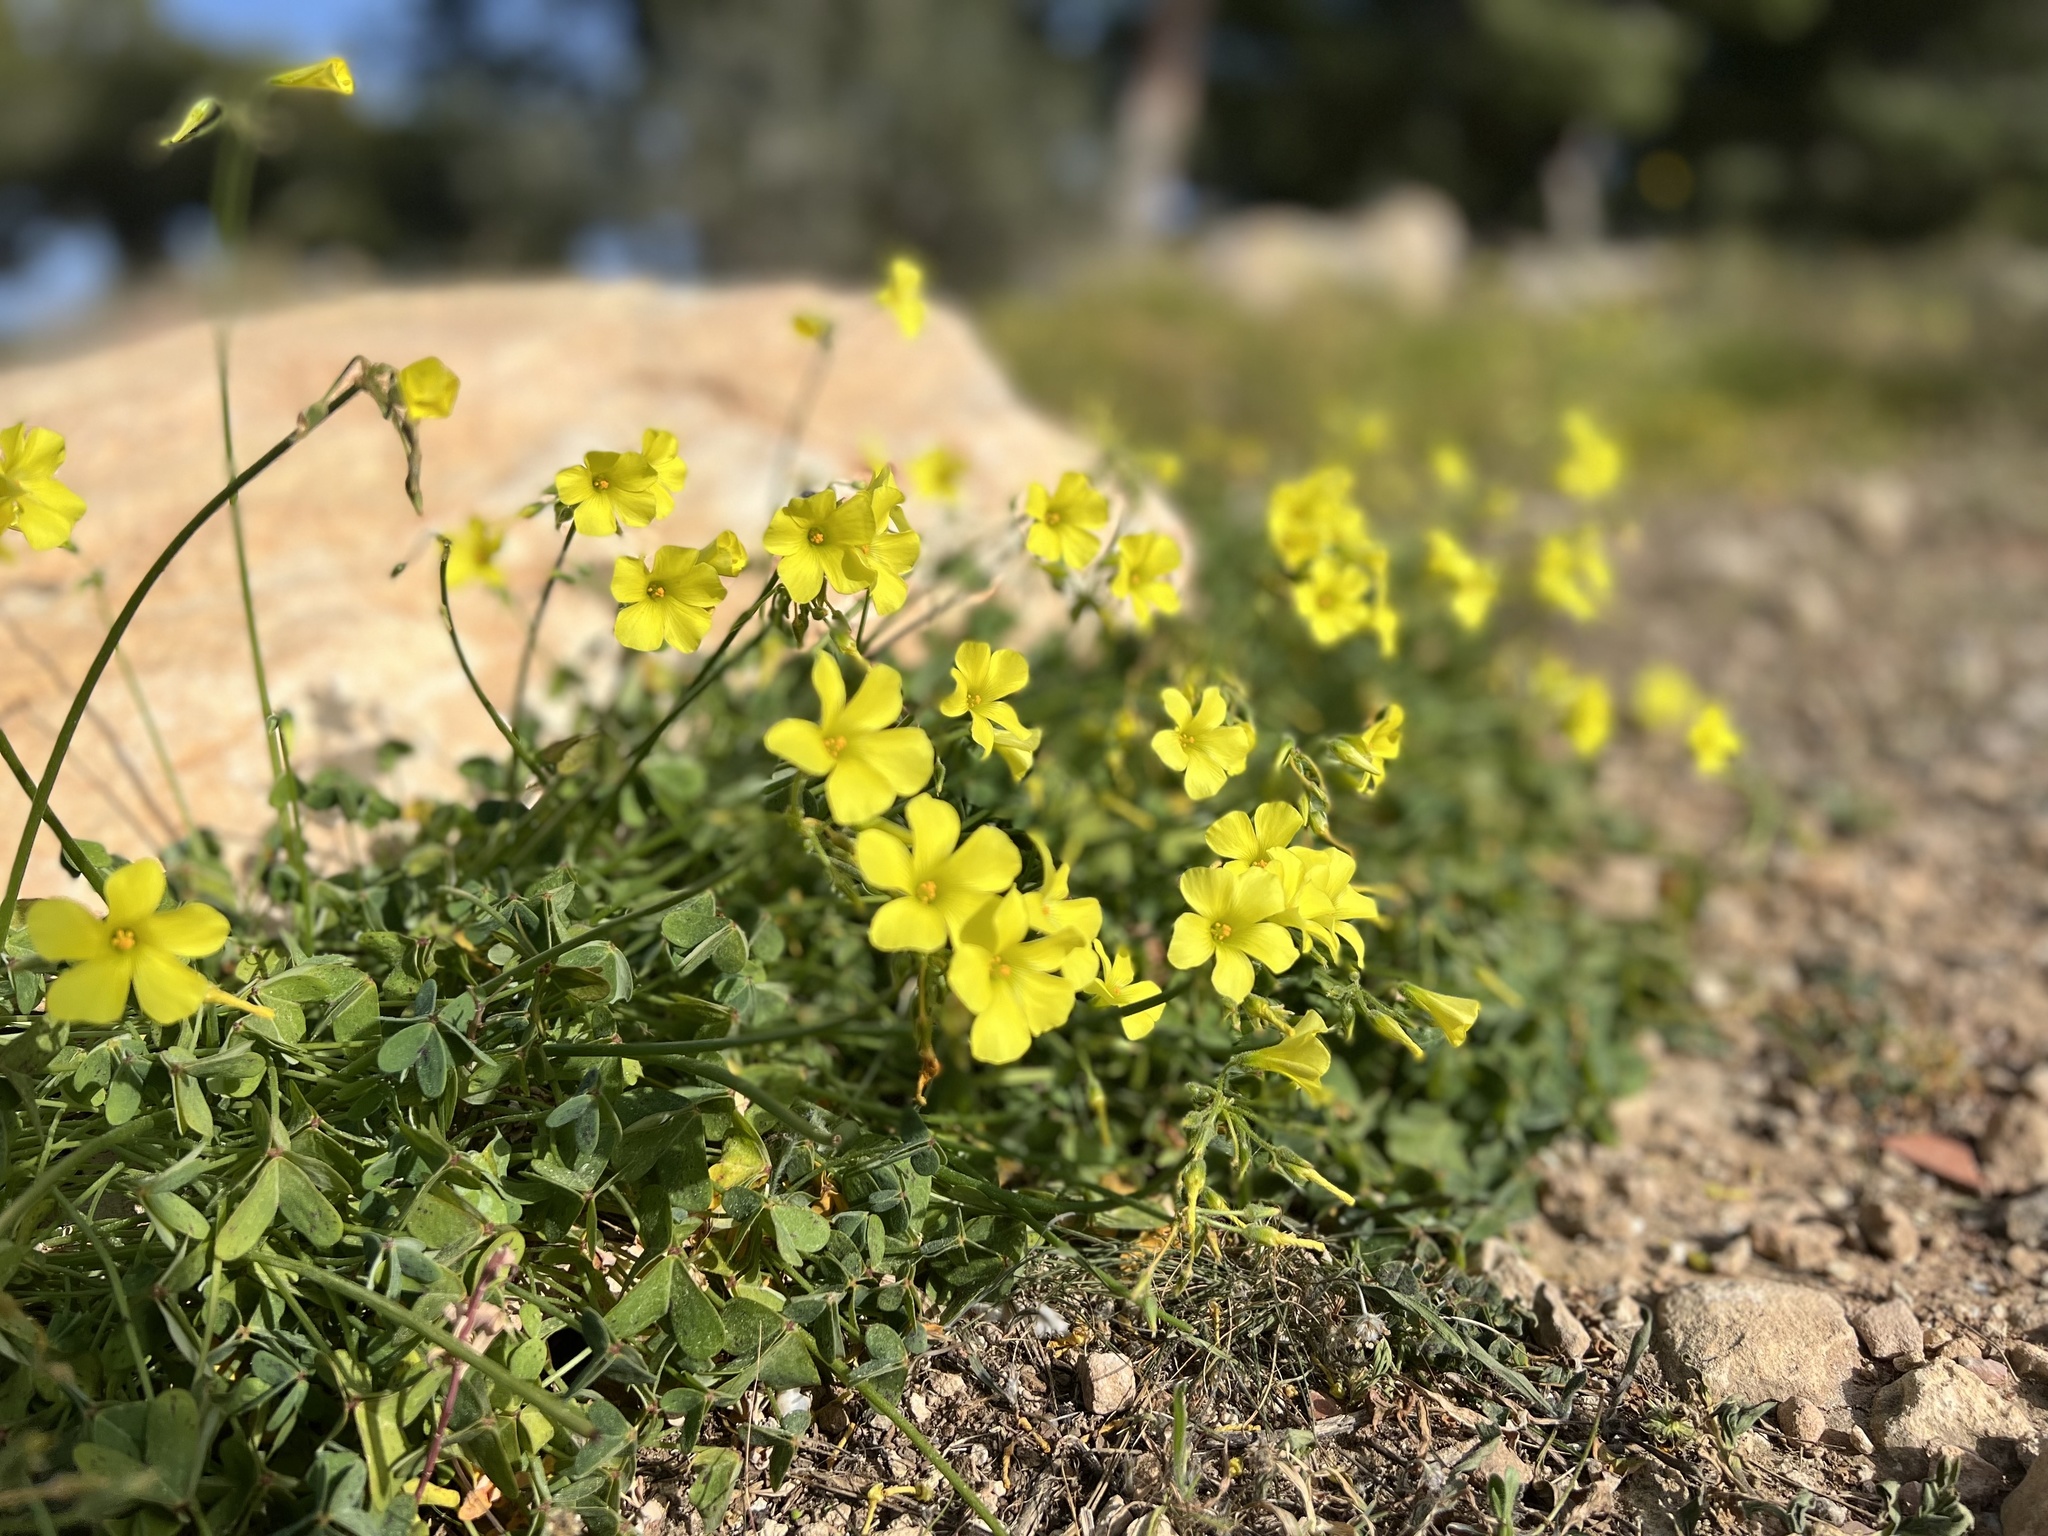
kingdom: Plantae
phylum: Tracheophyta
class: Magnoliopsida
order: Oxalidales
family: Oxalidaceae
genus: Oxalis
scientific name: Oxalis pes-caprae
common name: Bermuda-buttercup
